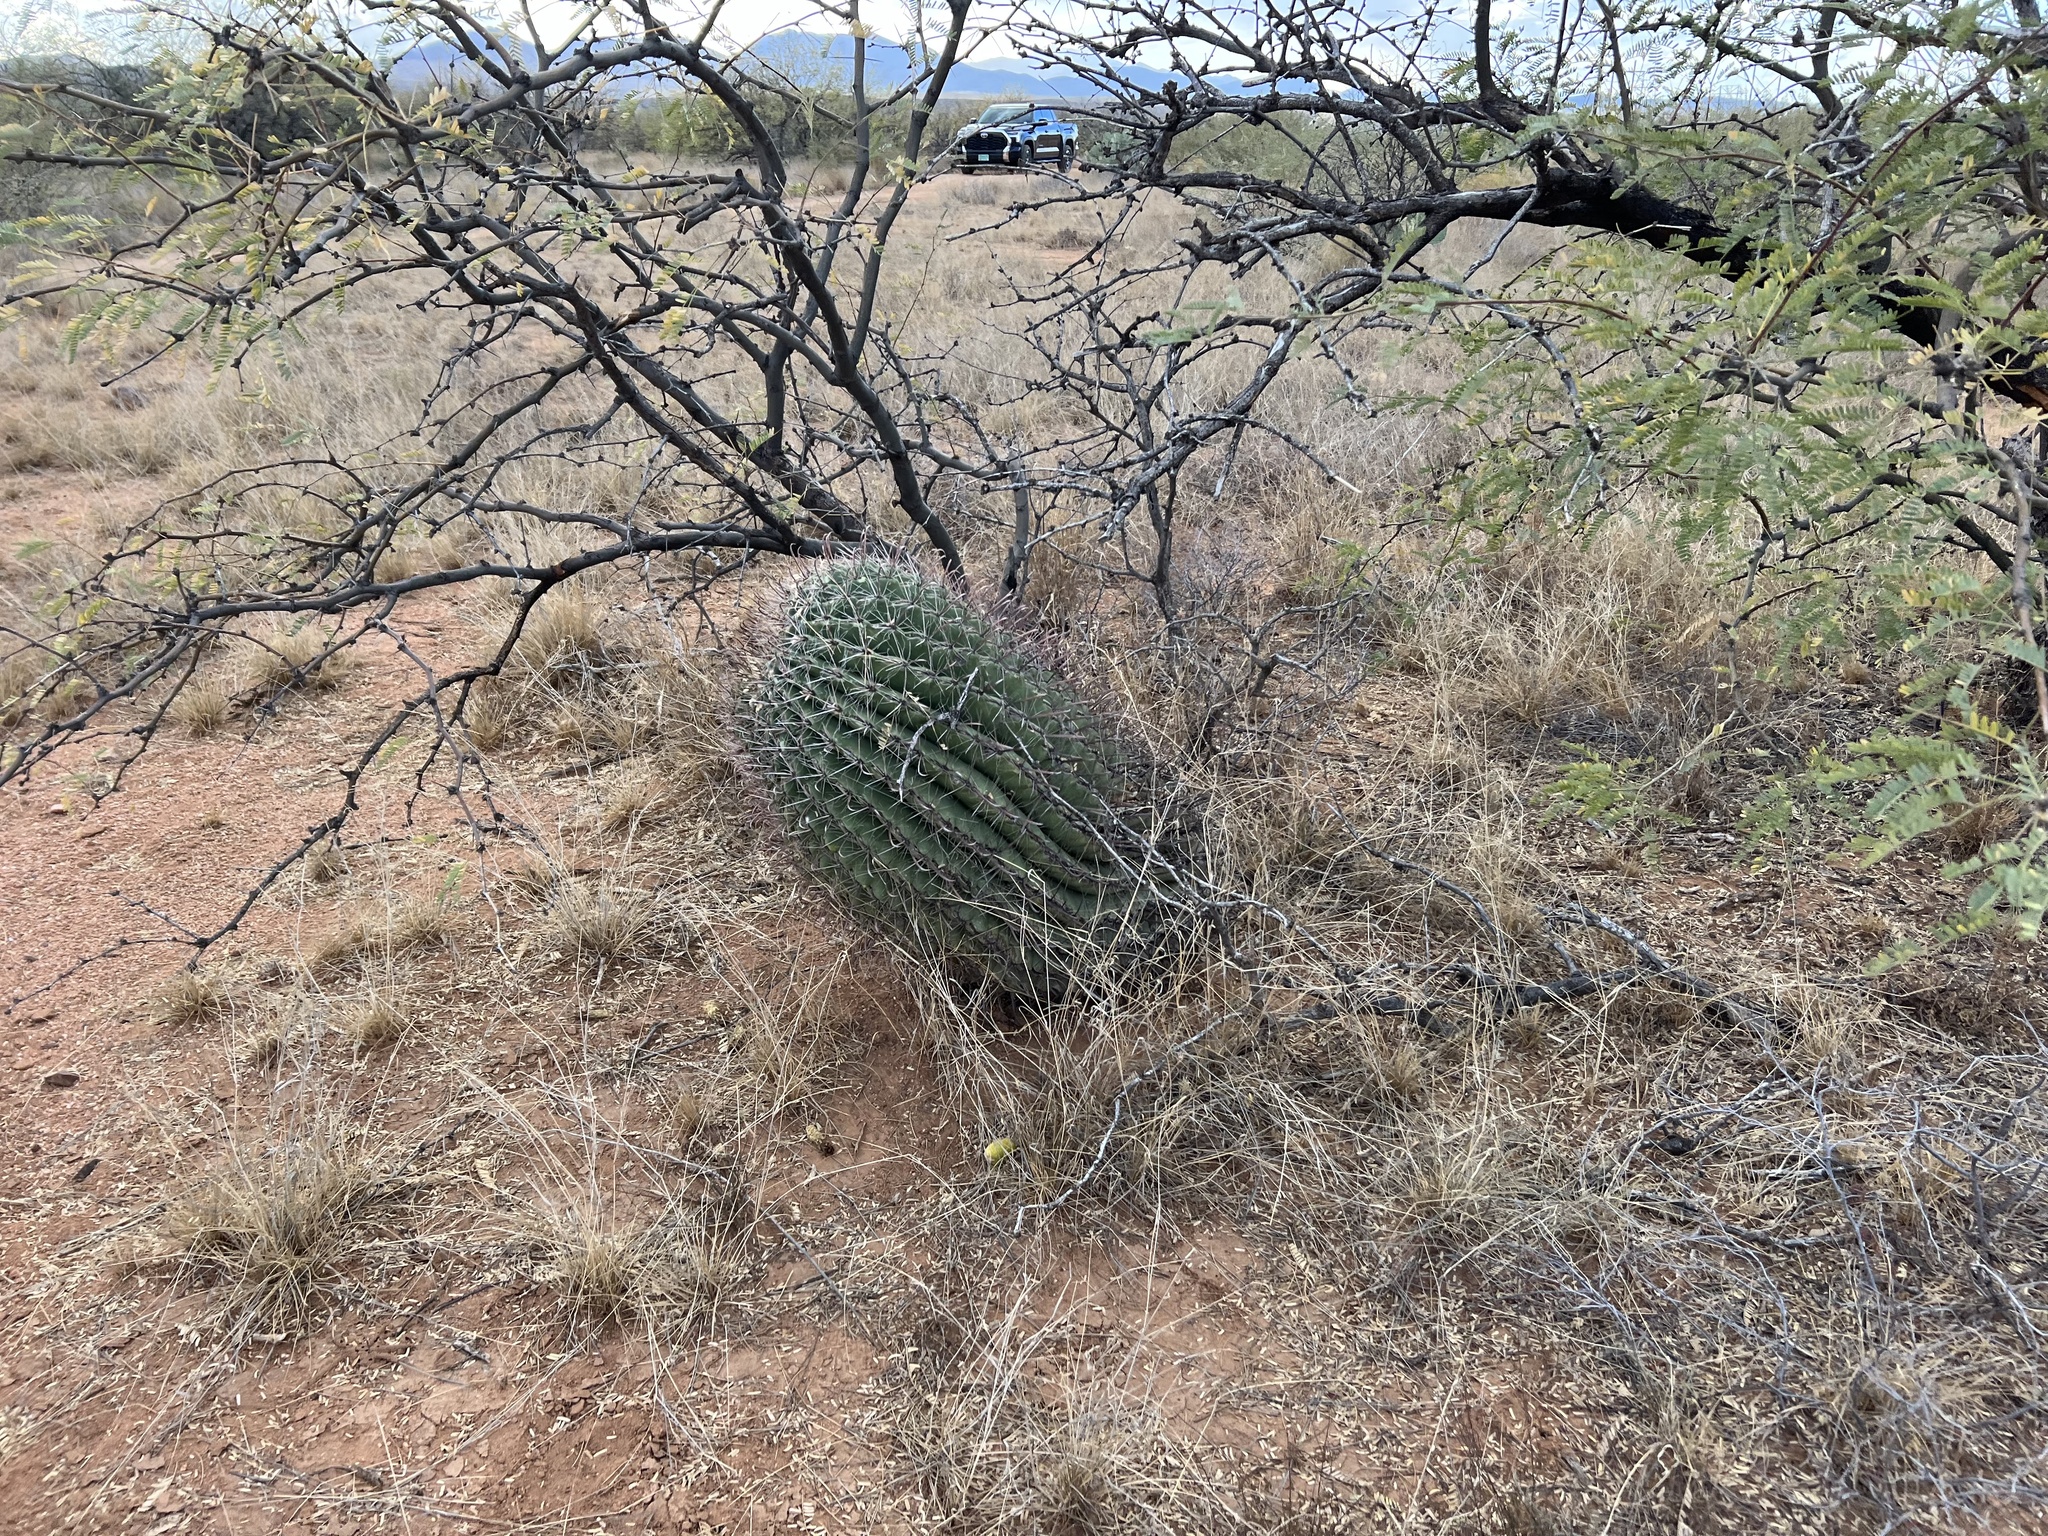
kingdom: Plantae
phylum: Tracheophyta
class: Magnoliopsida
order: Caryophyllales
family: Cactaceae
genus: Ferocactus
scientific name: Ferocactus wislizeni
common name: Candy barrel cactus
